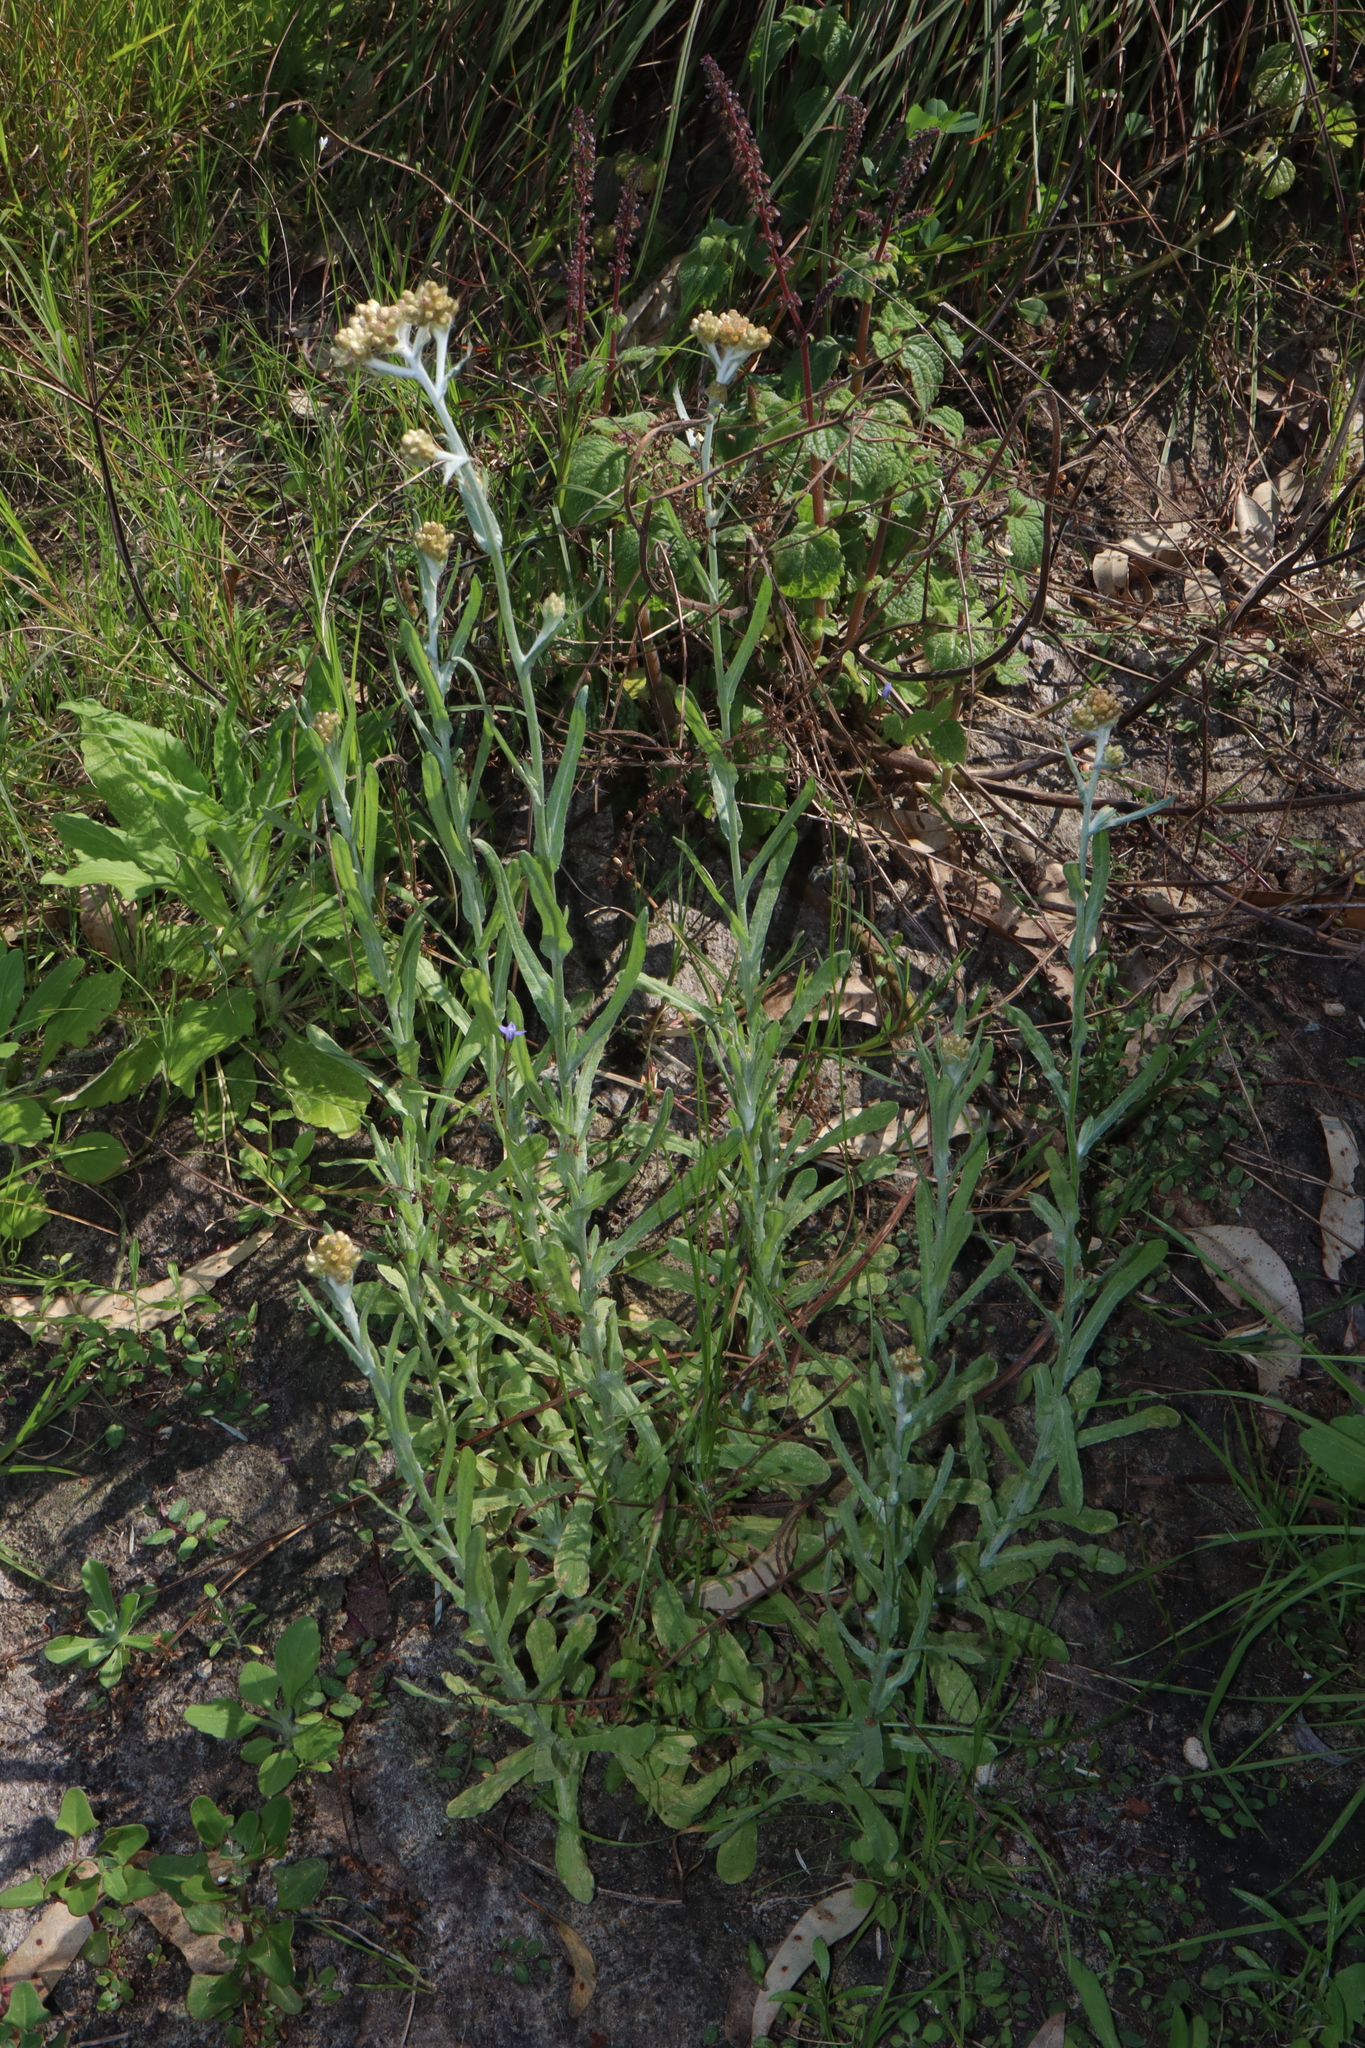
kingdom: Plantae
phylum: Tracheophyta
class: Magnoliopsida
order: Asterales
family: Asteraceae
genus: Helichrysum
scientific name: Helichrysum luteoalbum
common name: Daisy
